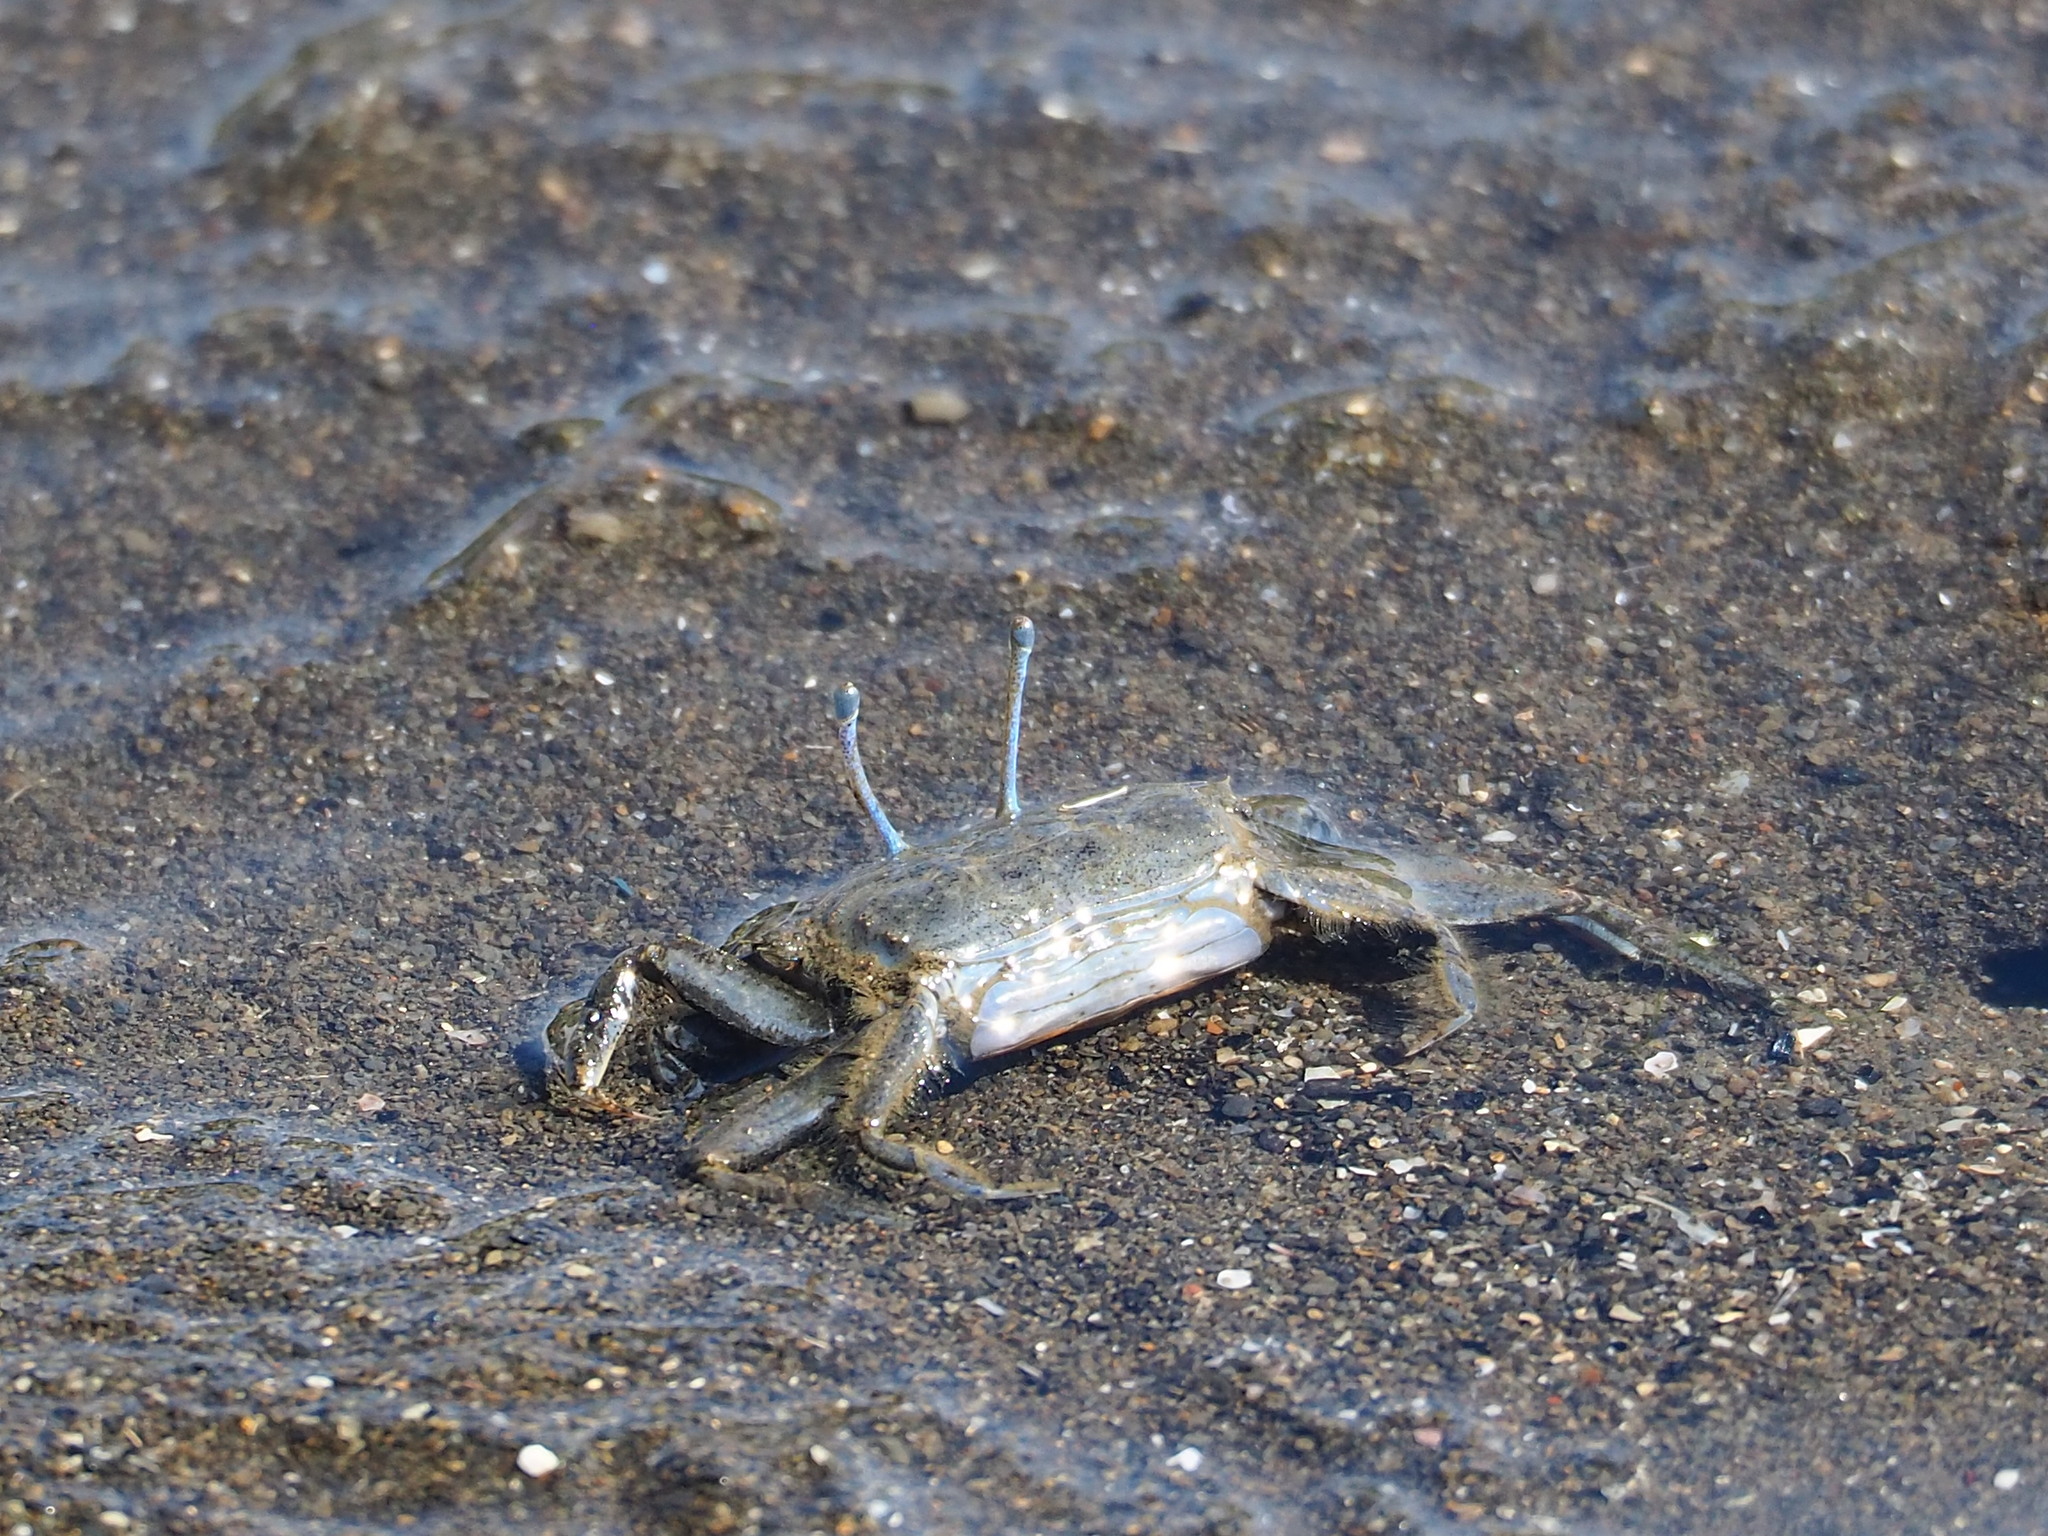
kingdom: Animalia
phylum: Arthropoda
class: Malacostraca
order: Decapoda
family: Macrophthalmidae
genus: Macrophthalmus
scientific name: Macrophthalmus abbreviatus
